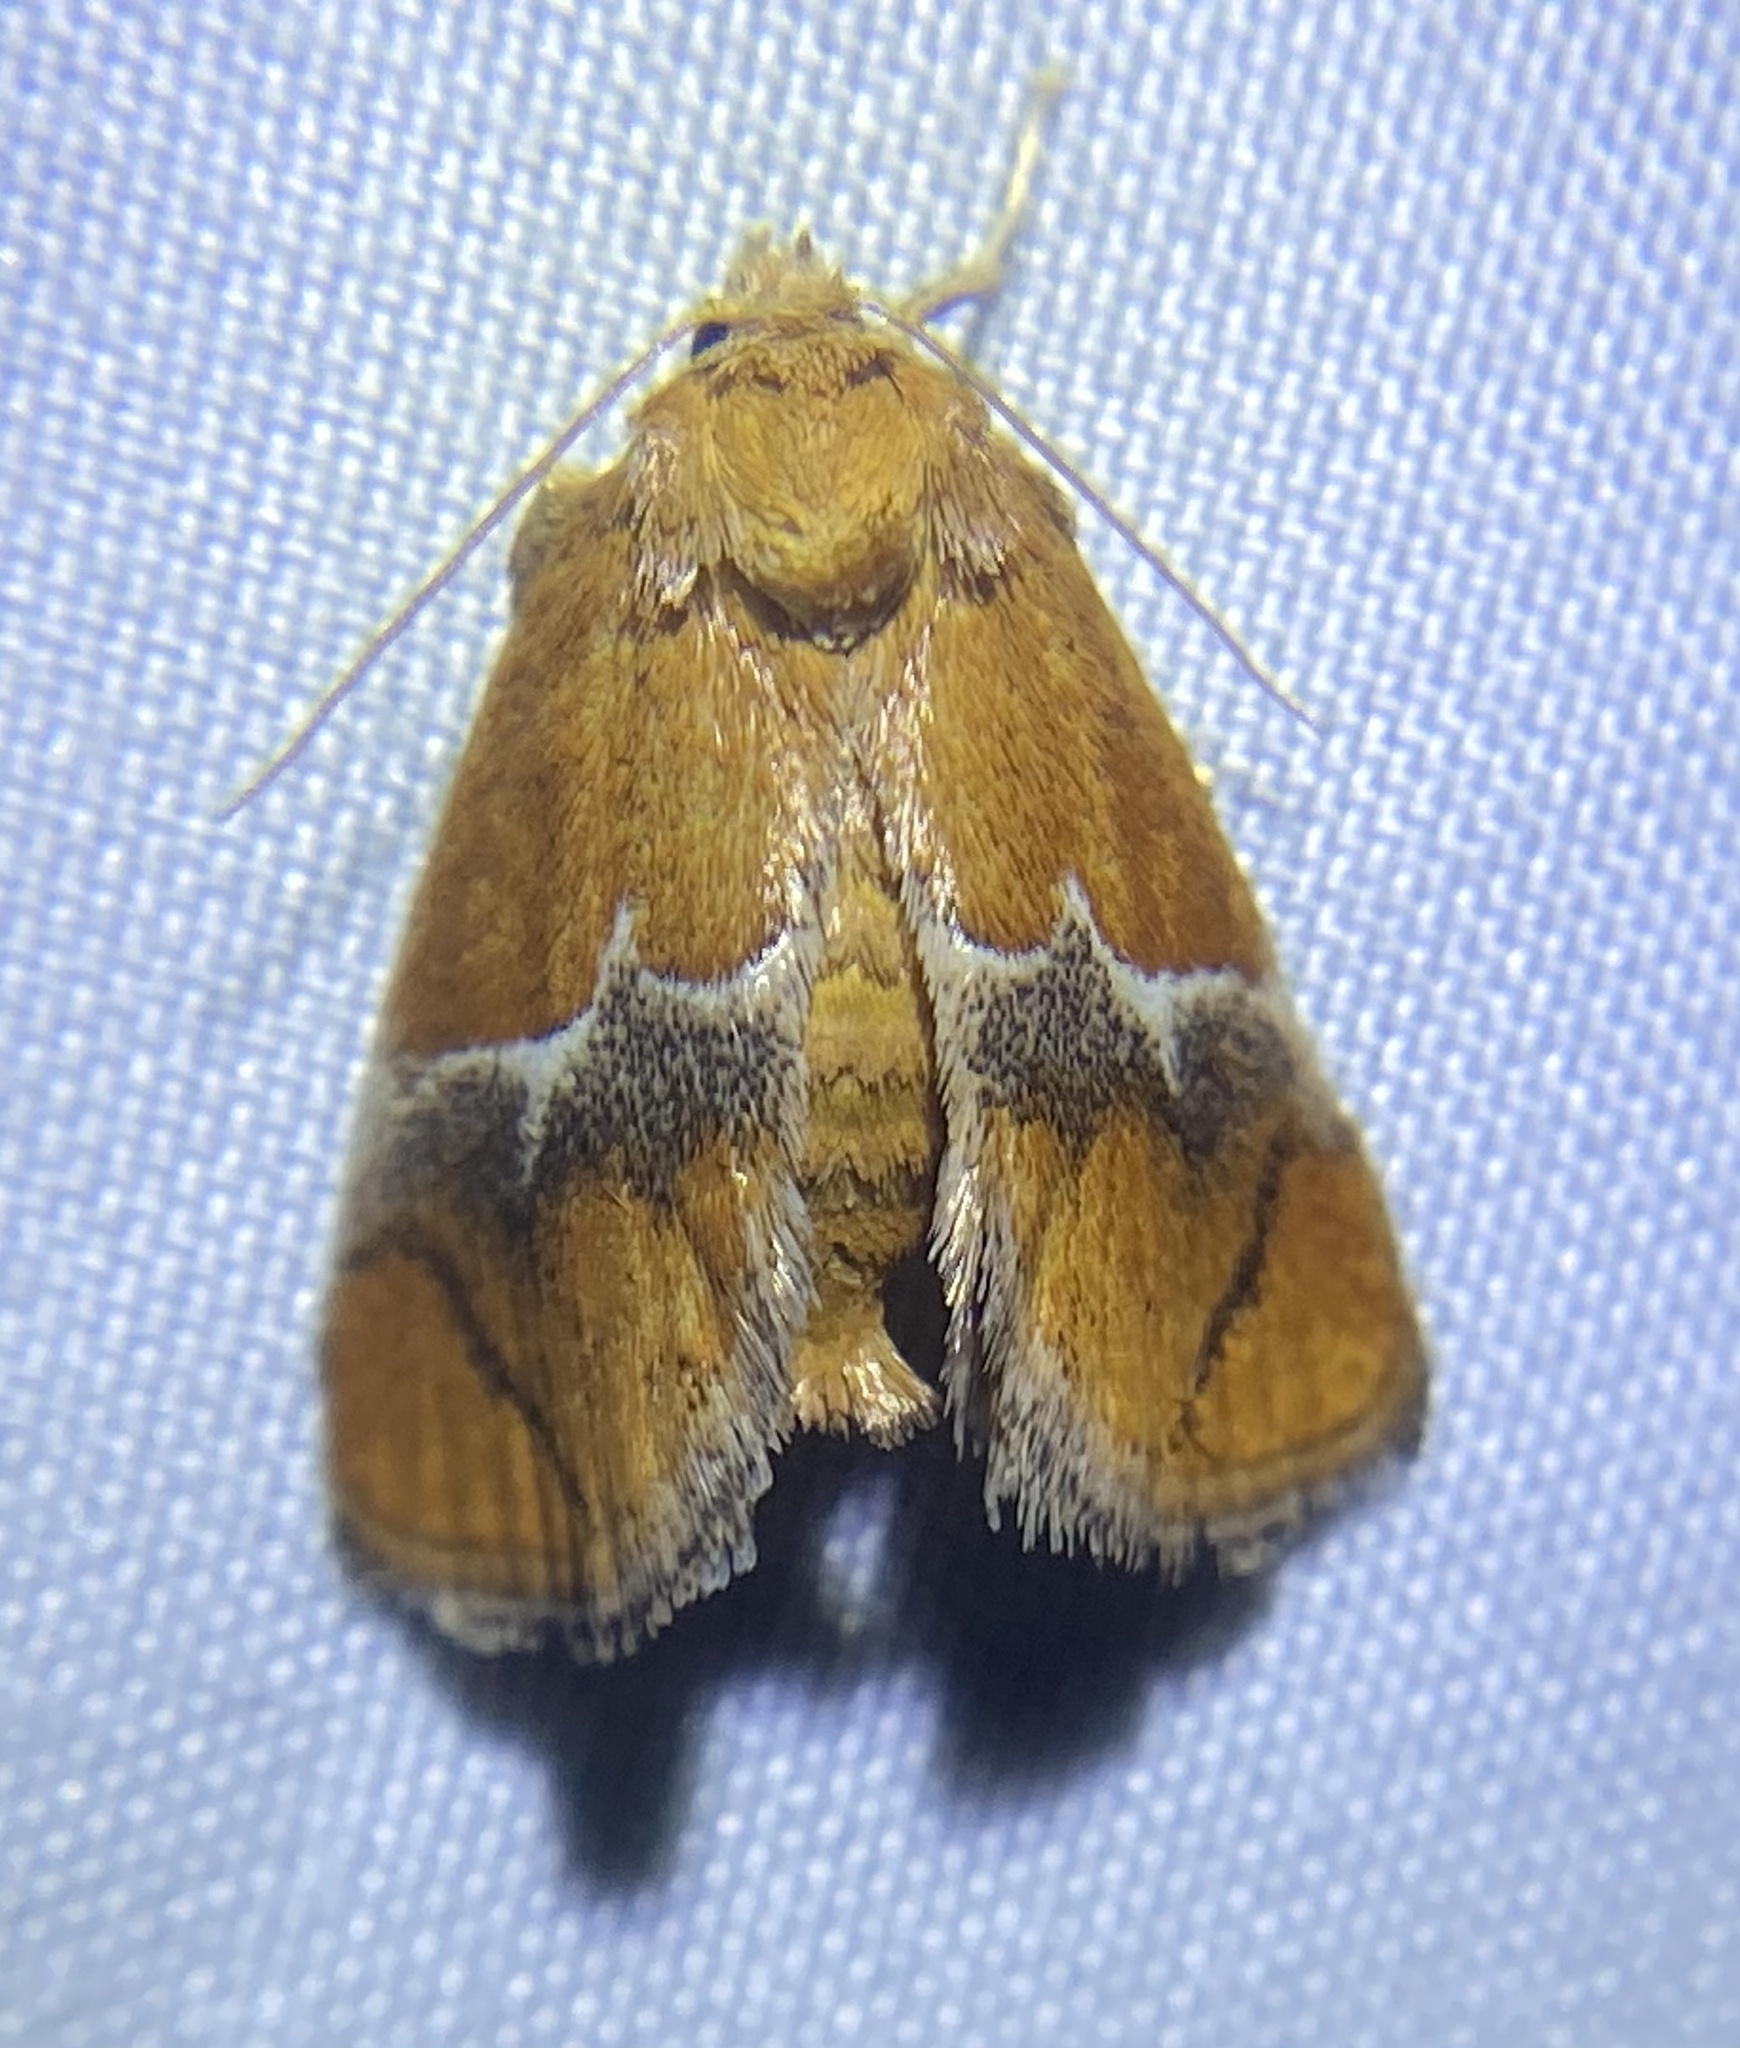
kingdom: Animalia
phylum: Arthropoda
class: Insecta
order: Lepidoptera
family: Limacodidae
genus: Lithacodes
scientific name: Lithacodes fasciola
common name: Yellow-shouldered slug moth
